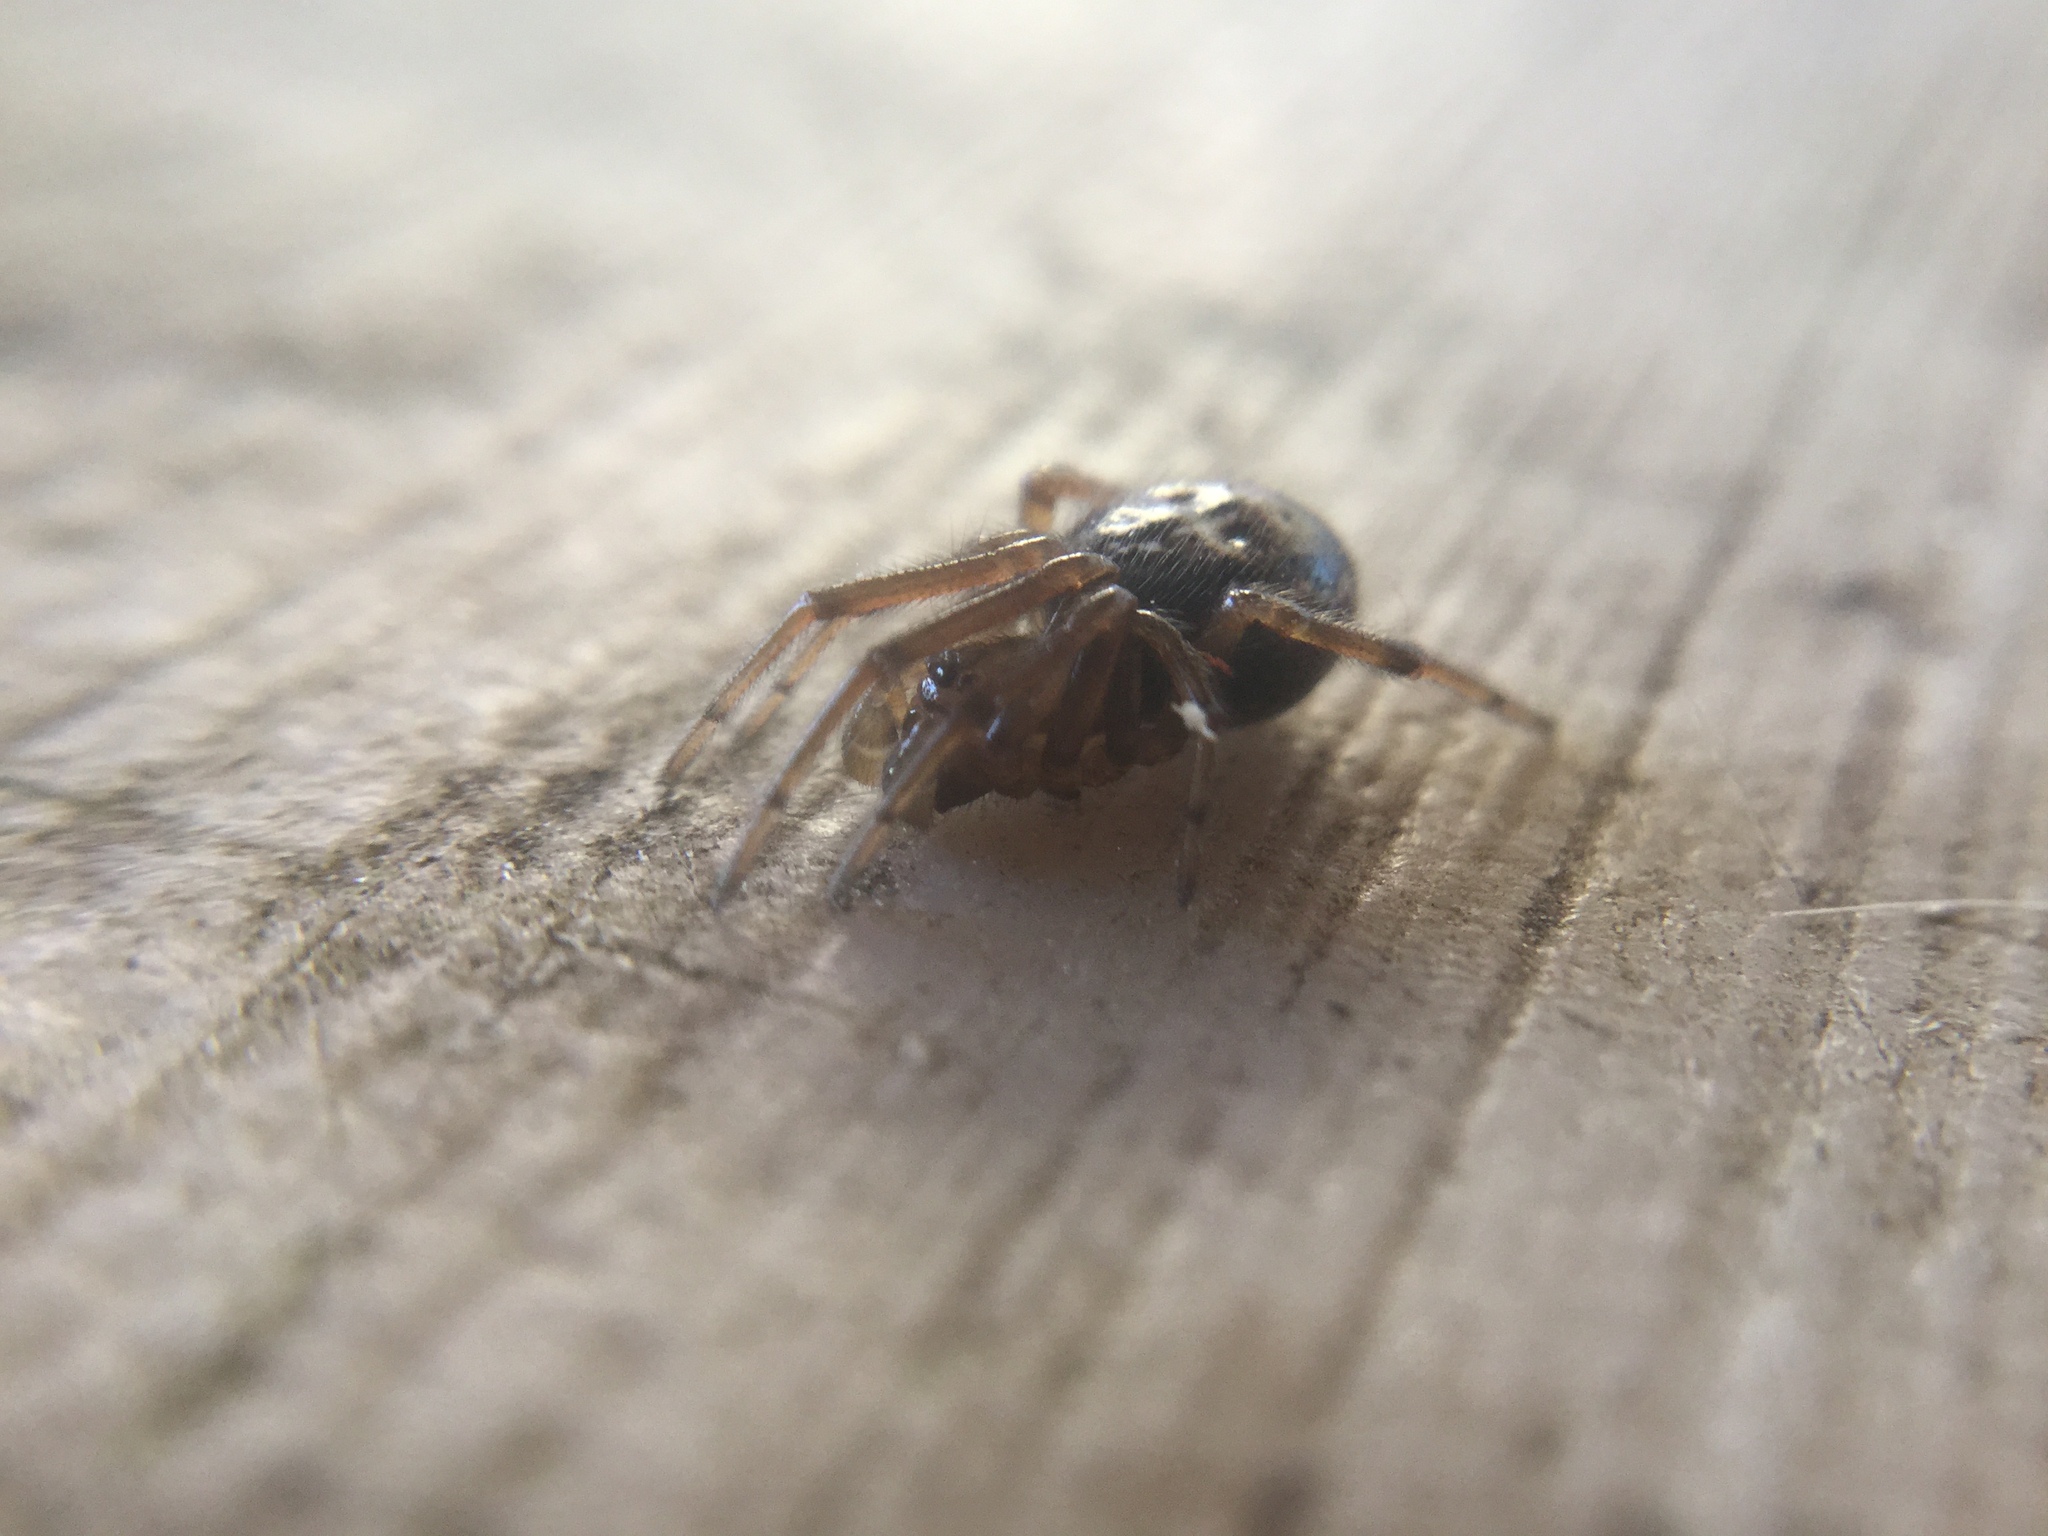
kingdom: Animalia
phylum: Arthropoda
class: Arachnida
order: Araneae
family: Theridiidae
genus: Enoplognatha
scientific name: Enoplognatha marmorata
